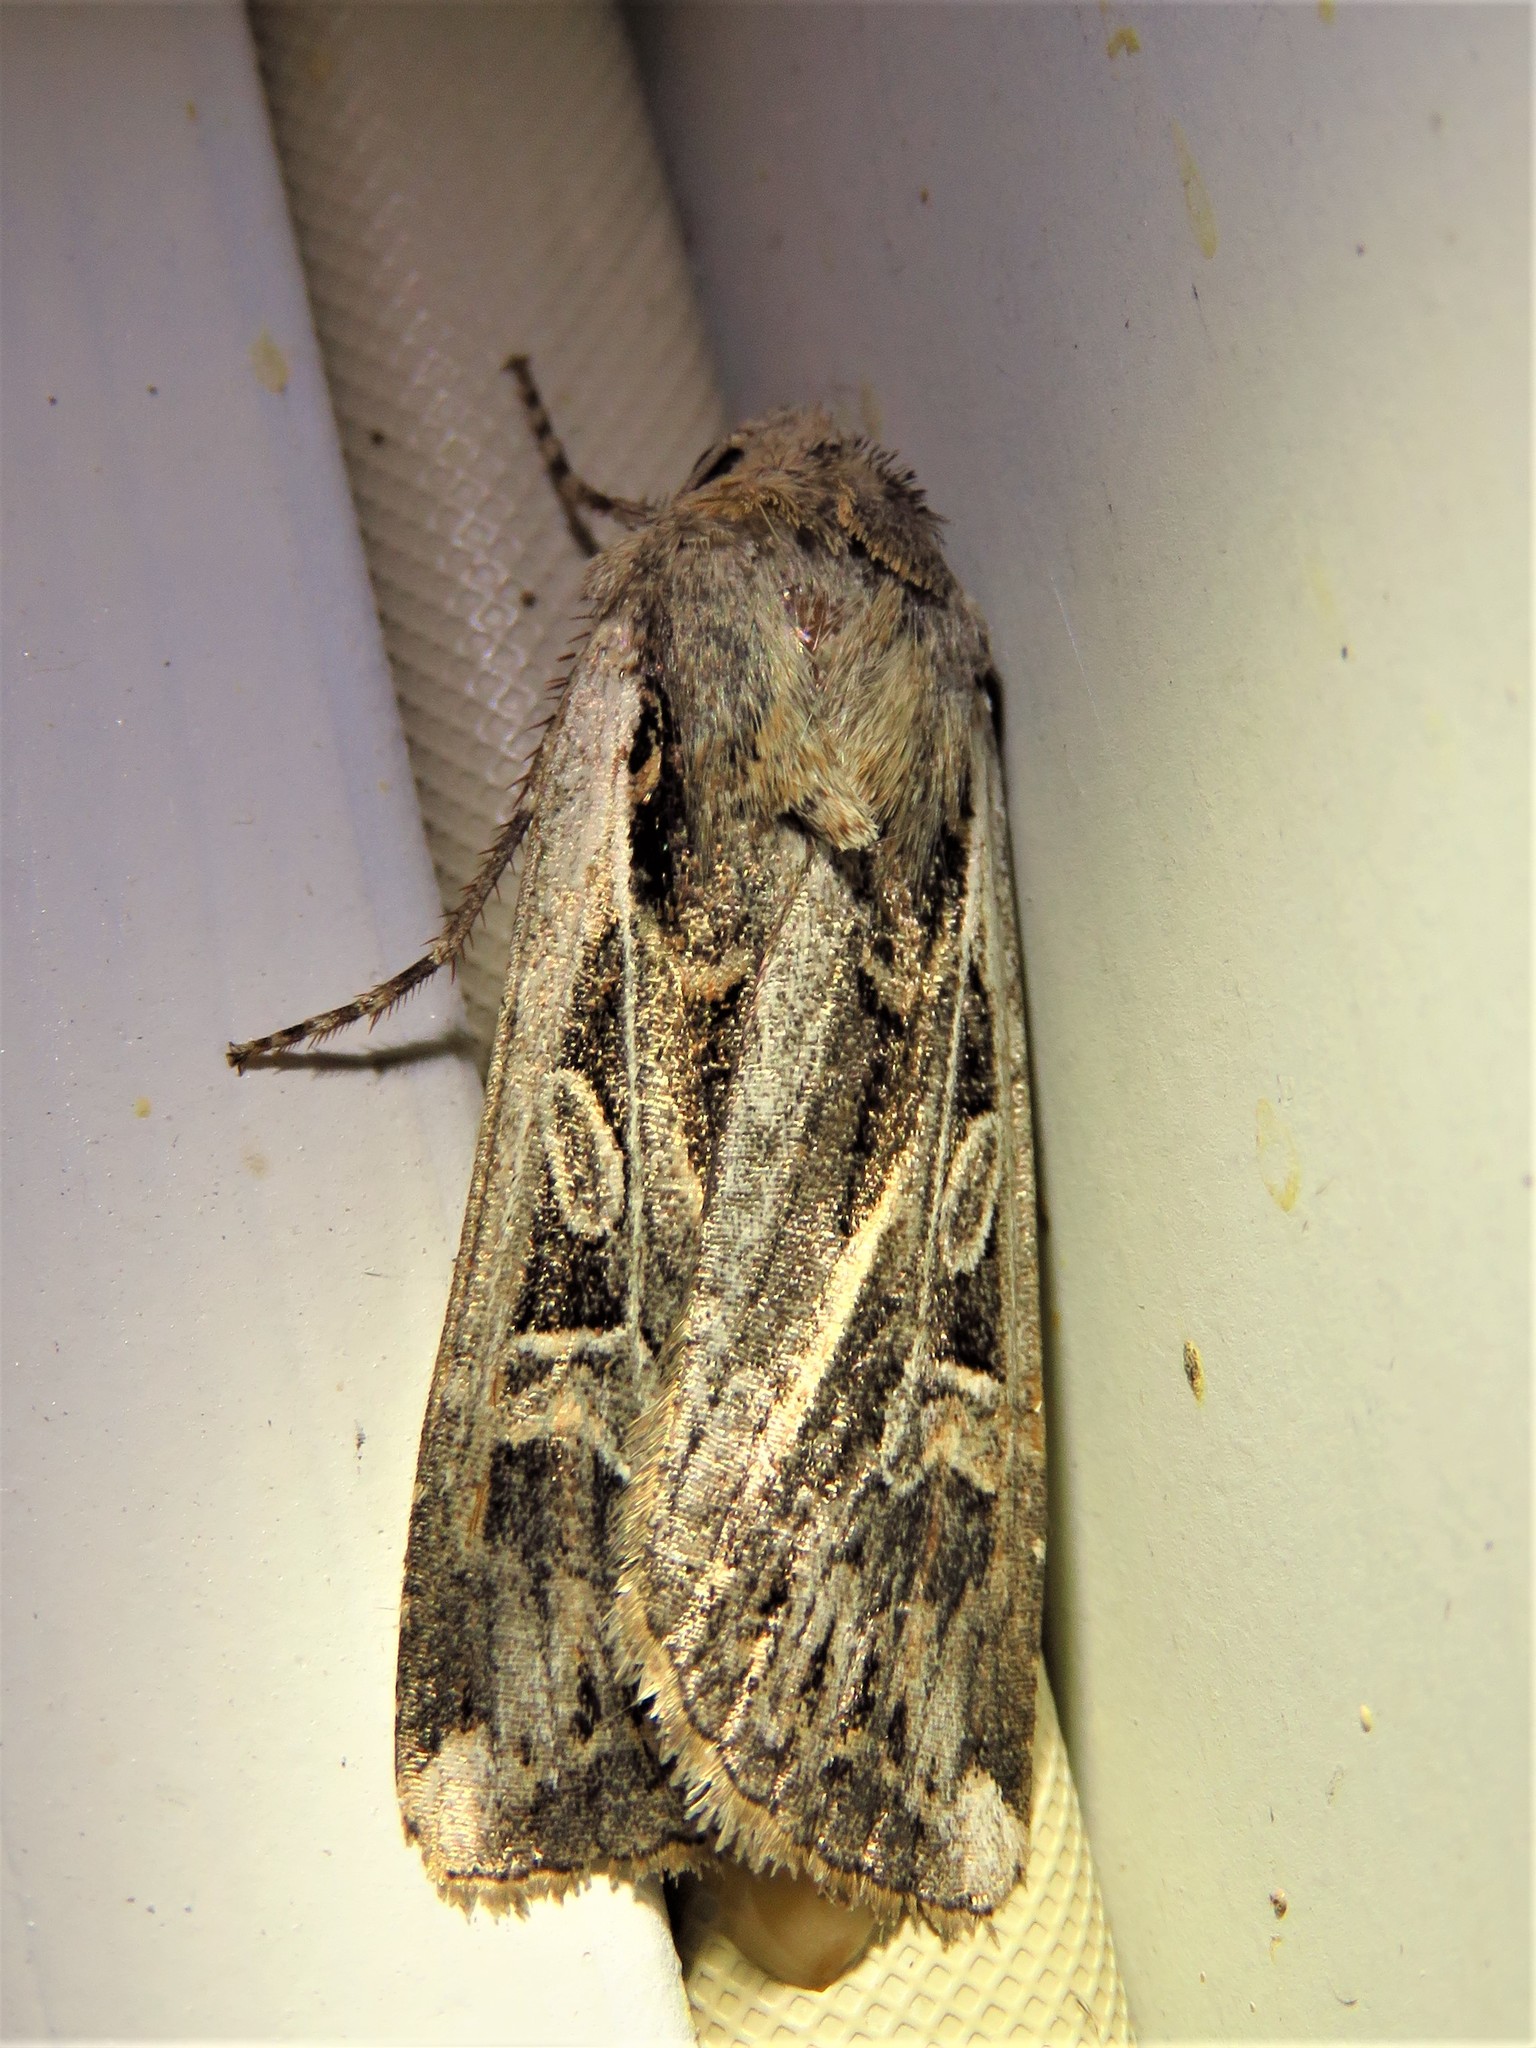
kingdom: Animalia
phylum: Arthropoda
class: Insecta
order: Lepidoptera
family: Noctuidae
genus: Euxoa
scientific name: Euxoa auxiliaris
